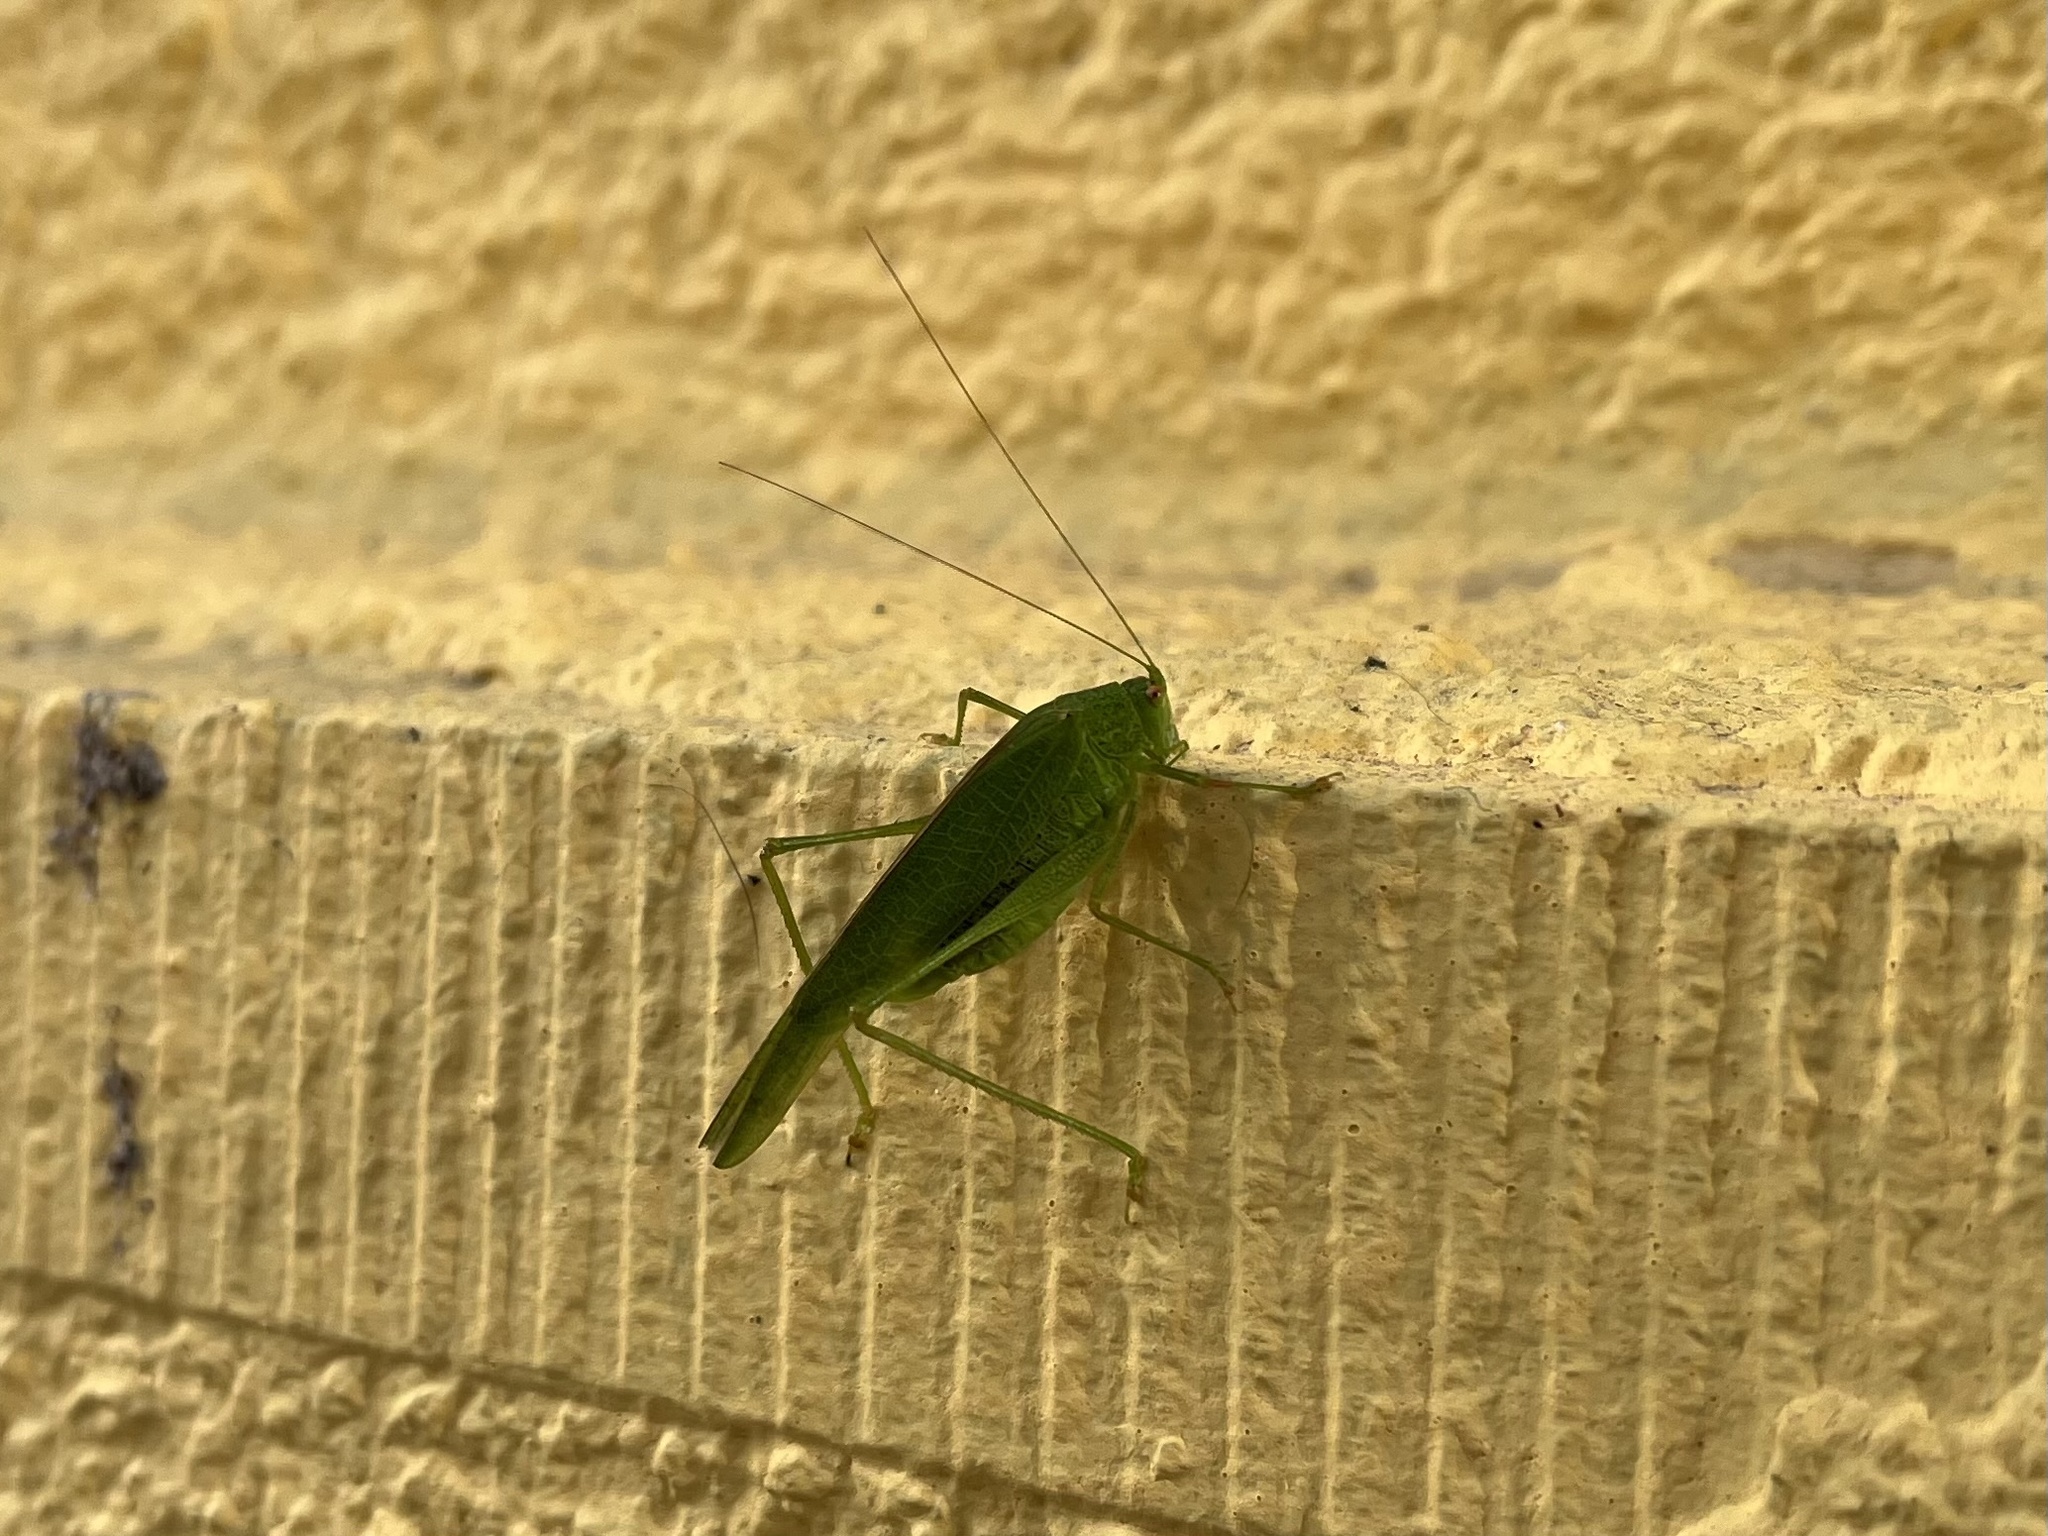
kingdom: Animalia
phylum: Arthropoda
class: Insecta
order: Orthoptera
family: Tettigoniidae
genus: Phaneroptera
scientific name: Phaneroptera nana
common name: Southern sickle bush-cricket
